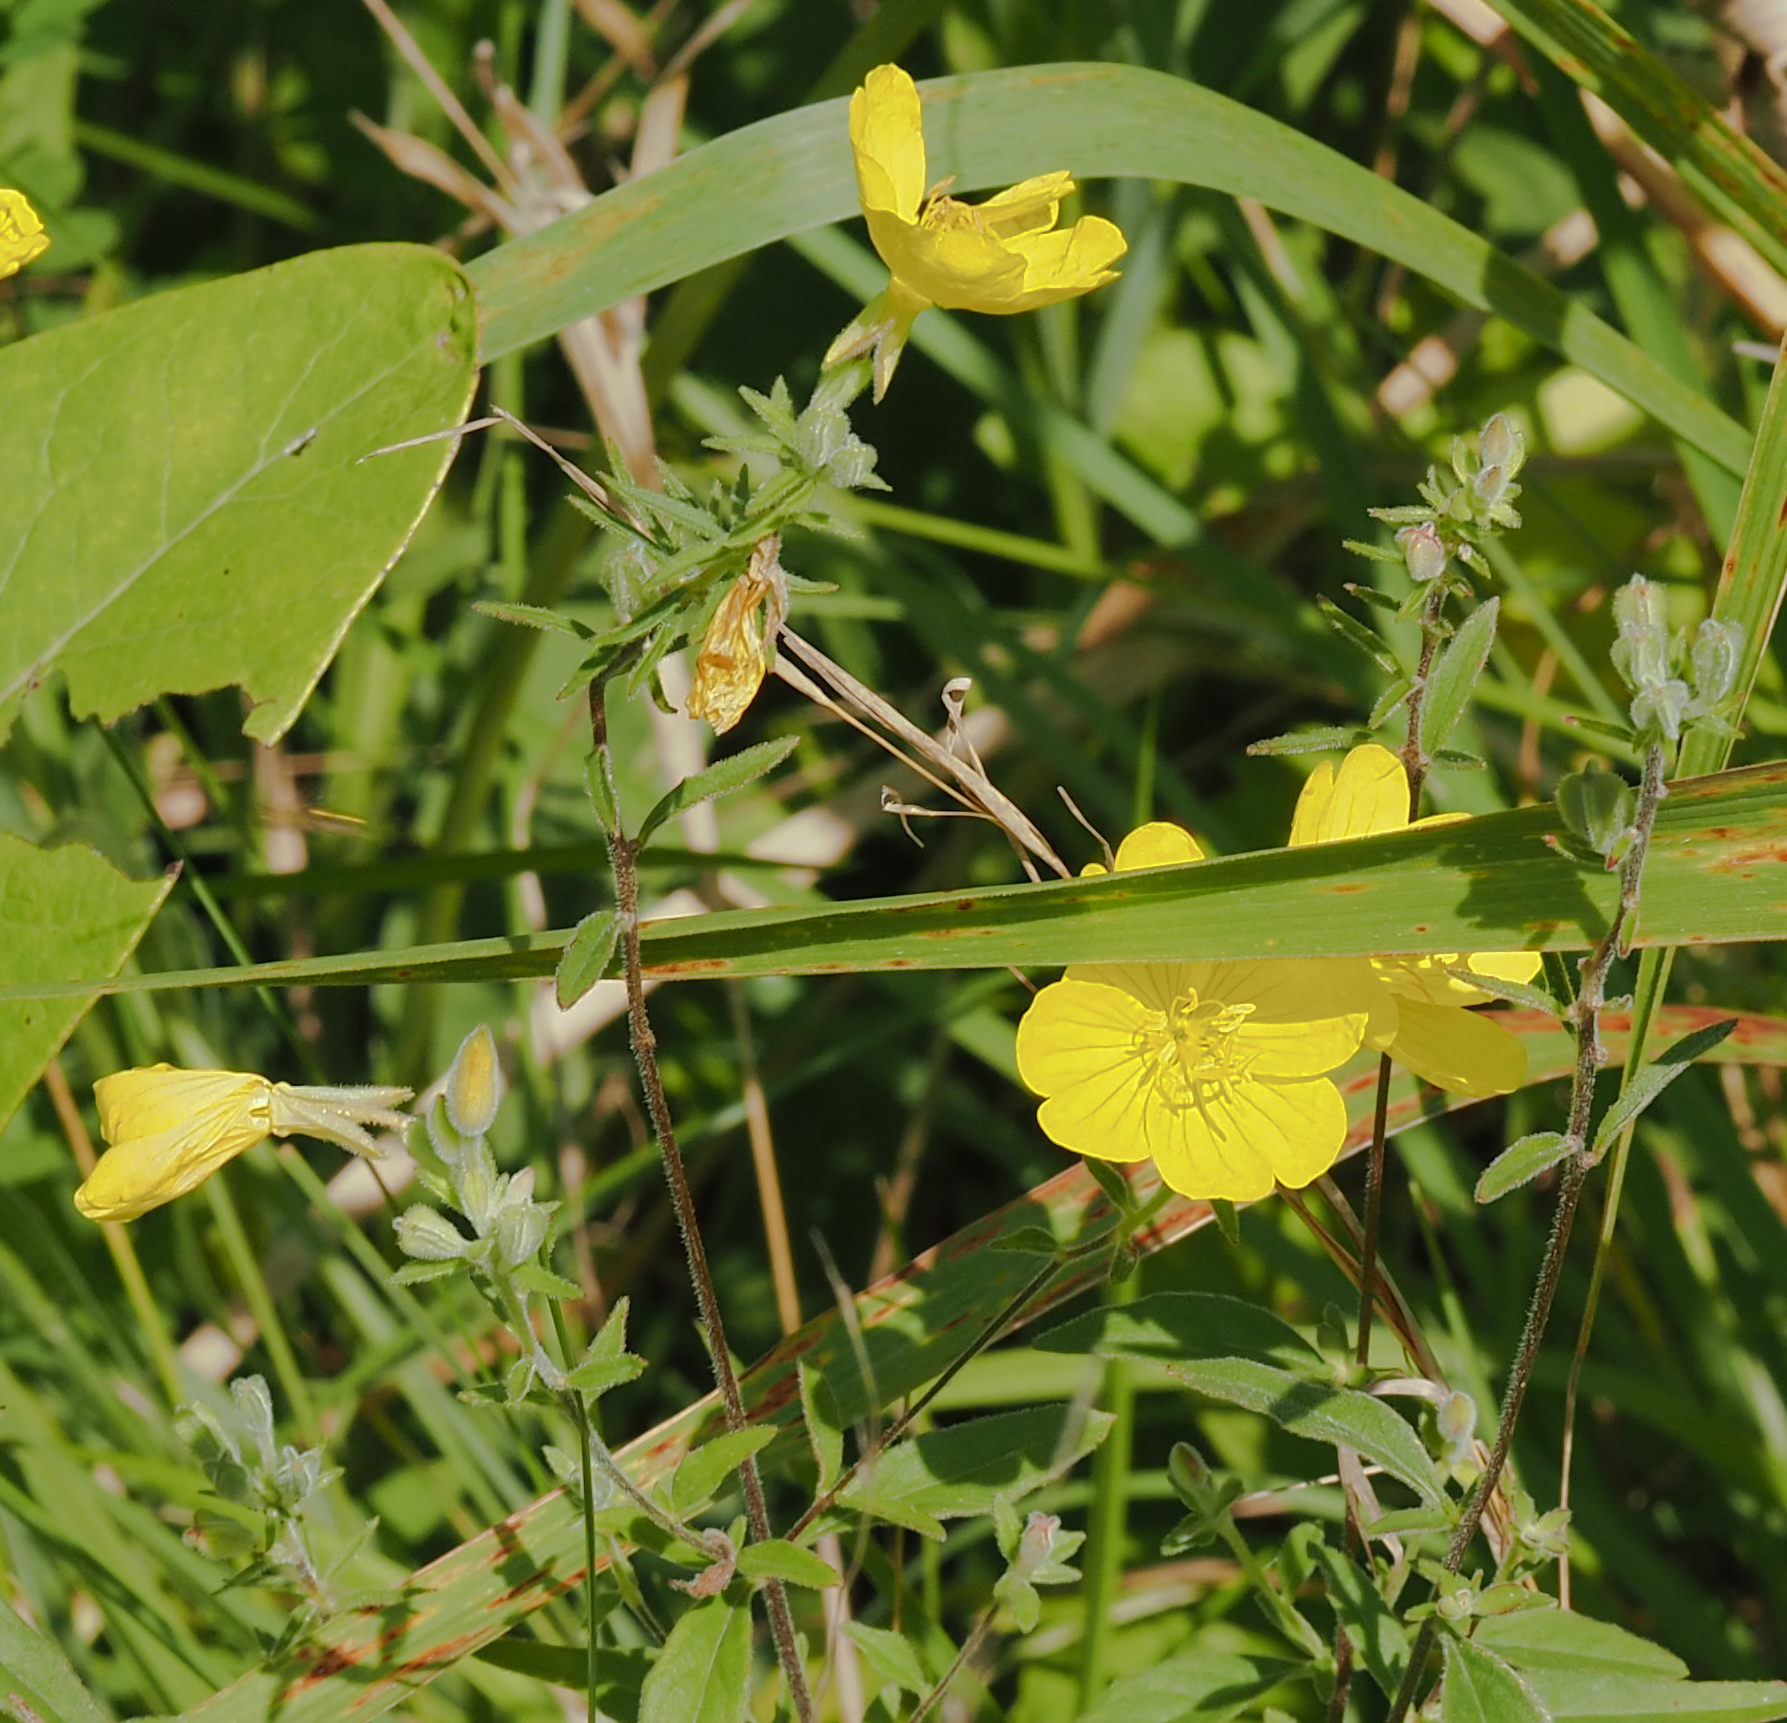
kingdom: Plantae
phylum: Tracheophyta
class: Magnoliopsida
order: Myrtales
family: Onagraceae
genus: Oenothera
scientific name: Oenothera fruticosa
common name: Southern sundrops
